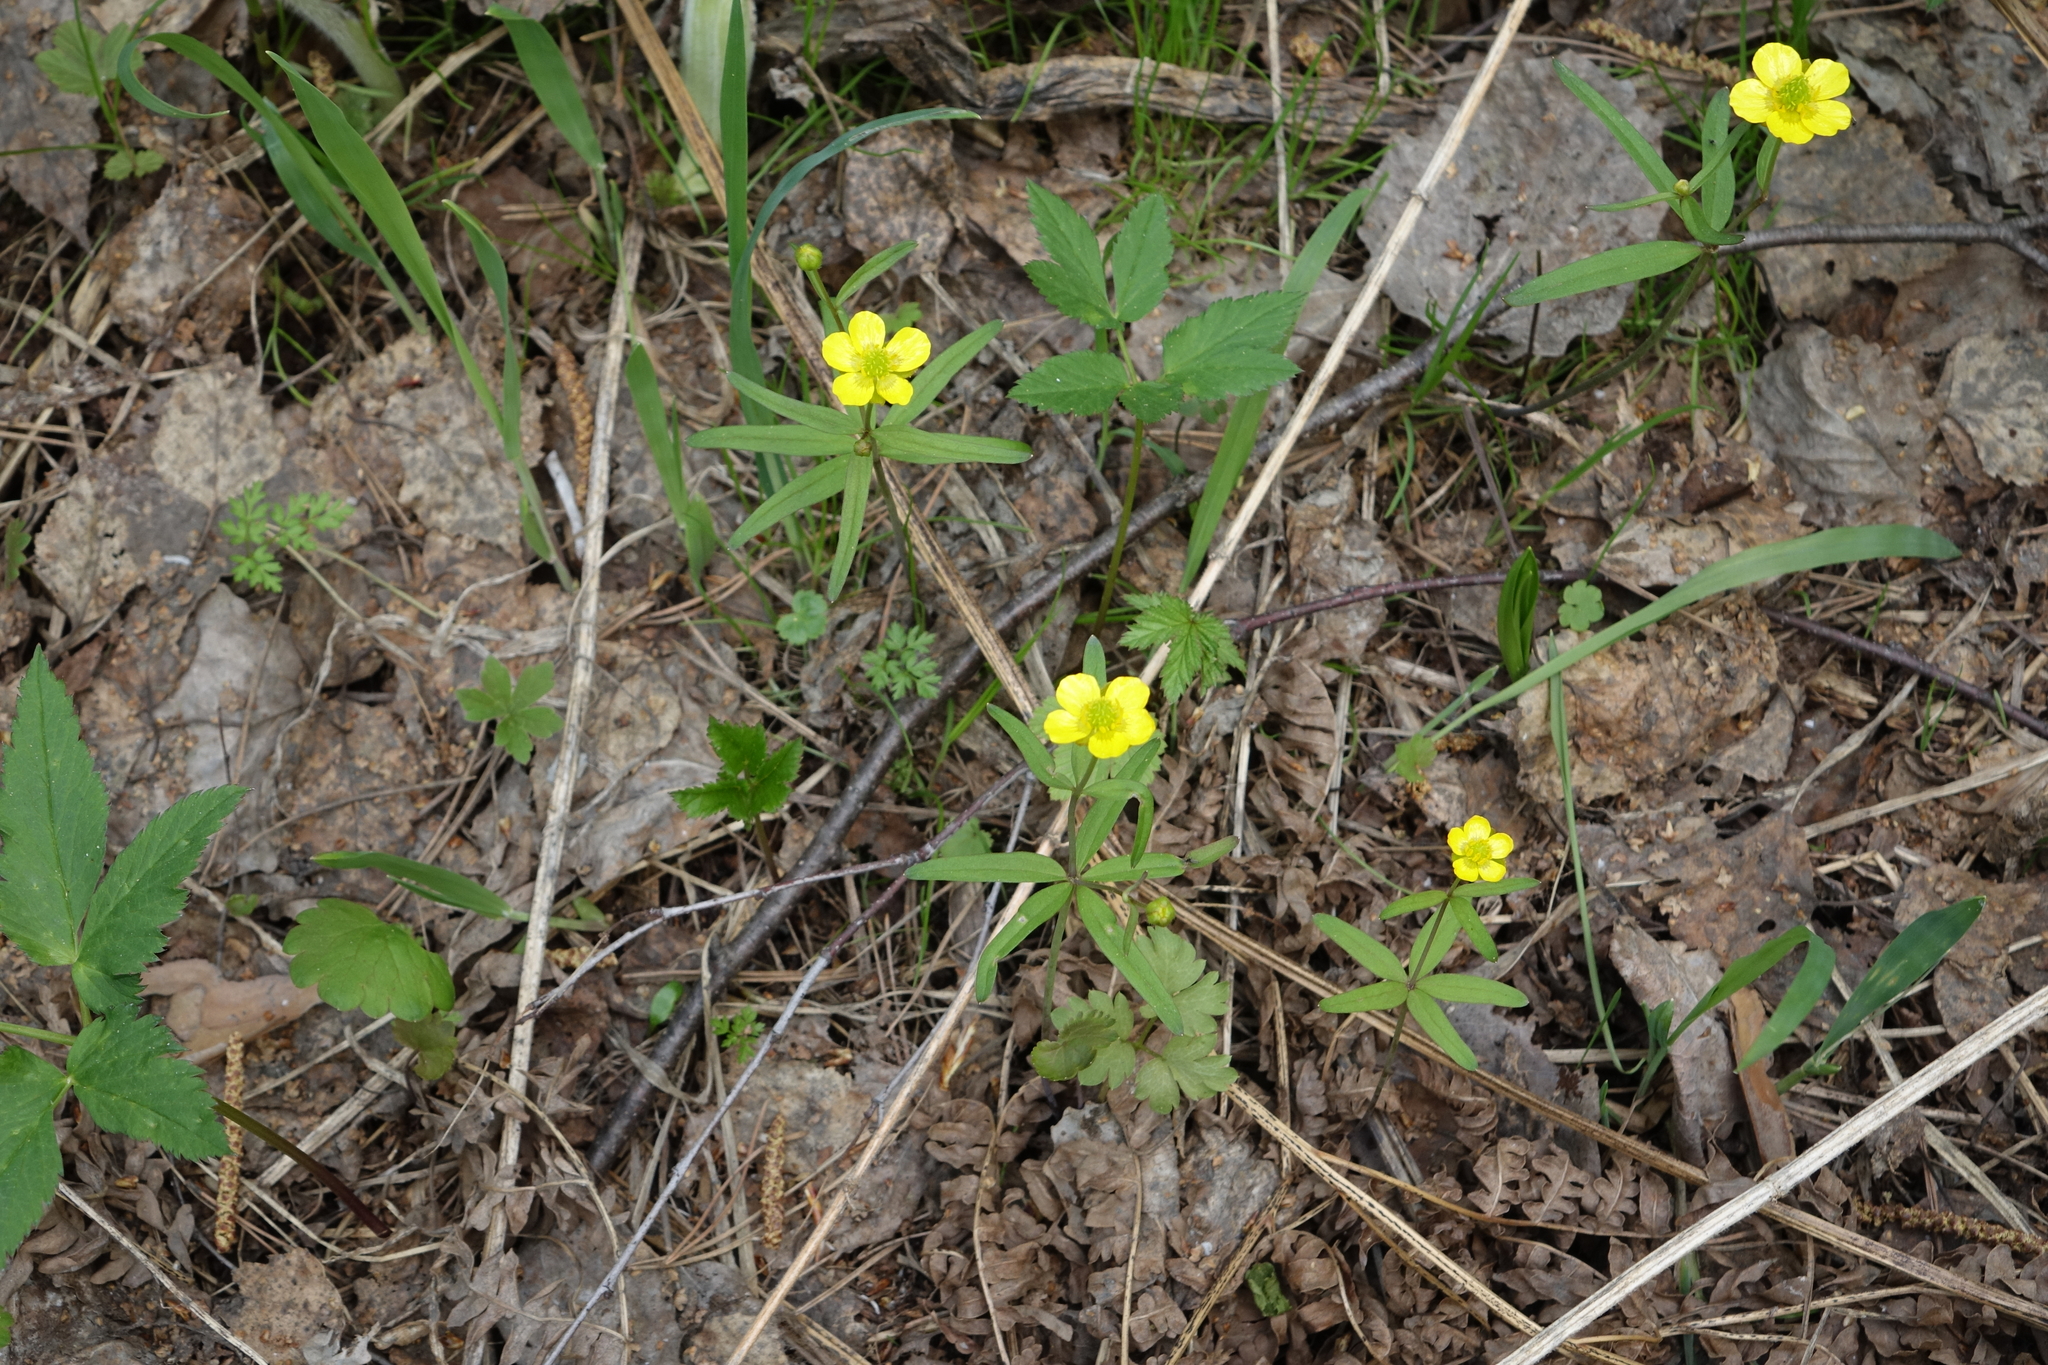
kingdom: Plantae
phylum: Tracheophyta
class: Magnoliopsida
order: Ranunculales
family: Ranunculaceae
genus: Ranunculus
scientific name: Ranunculus monophyllus
